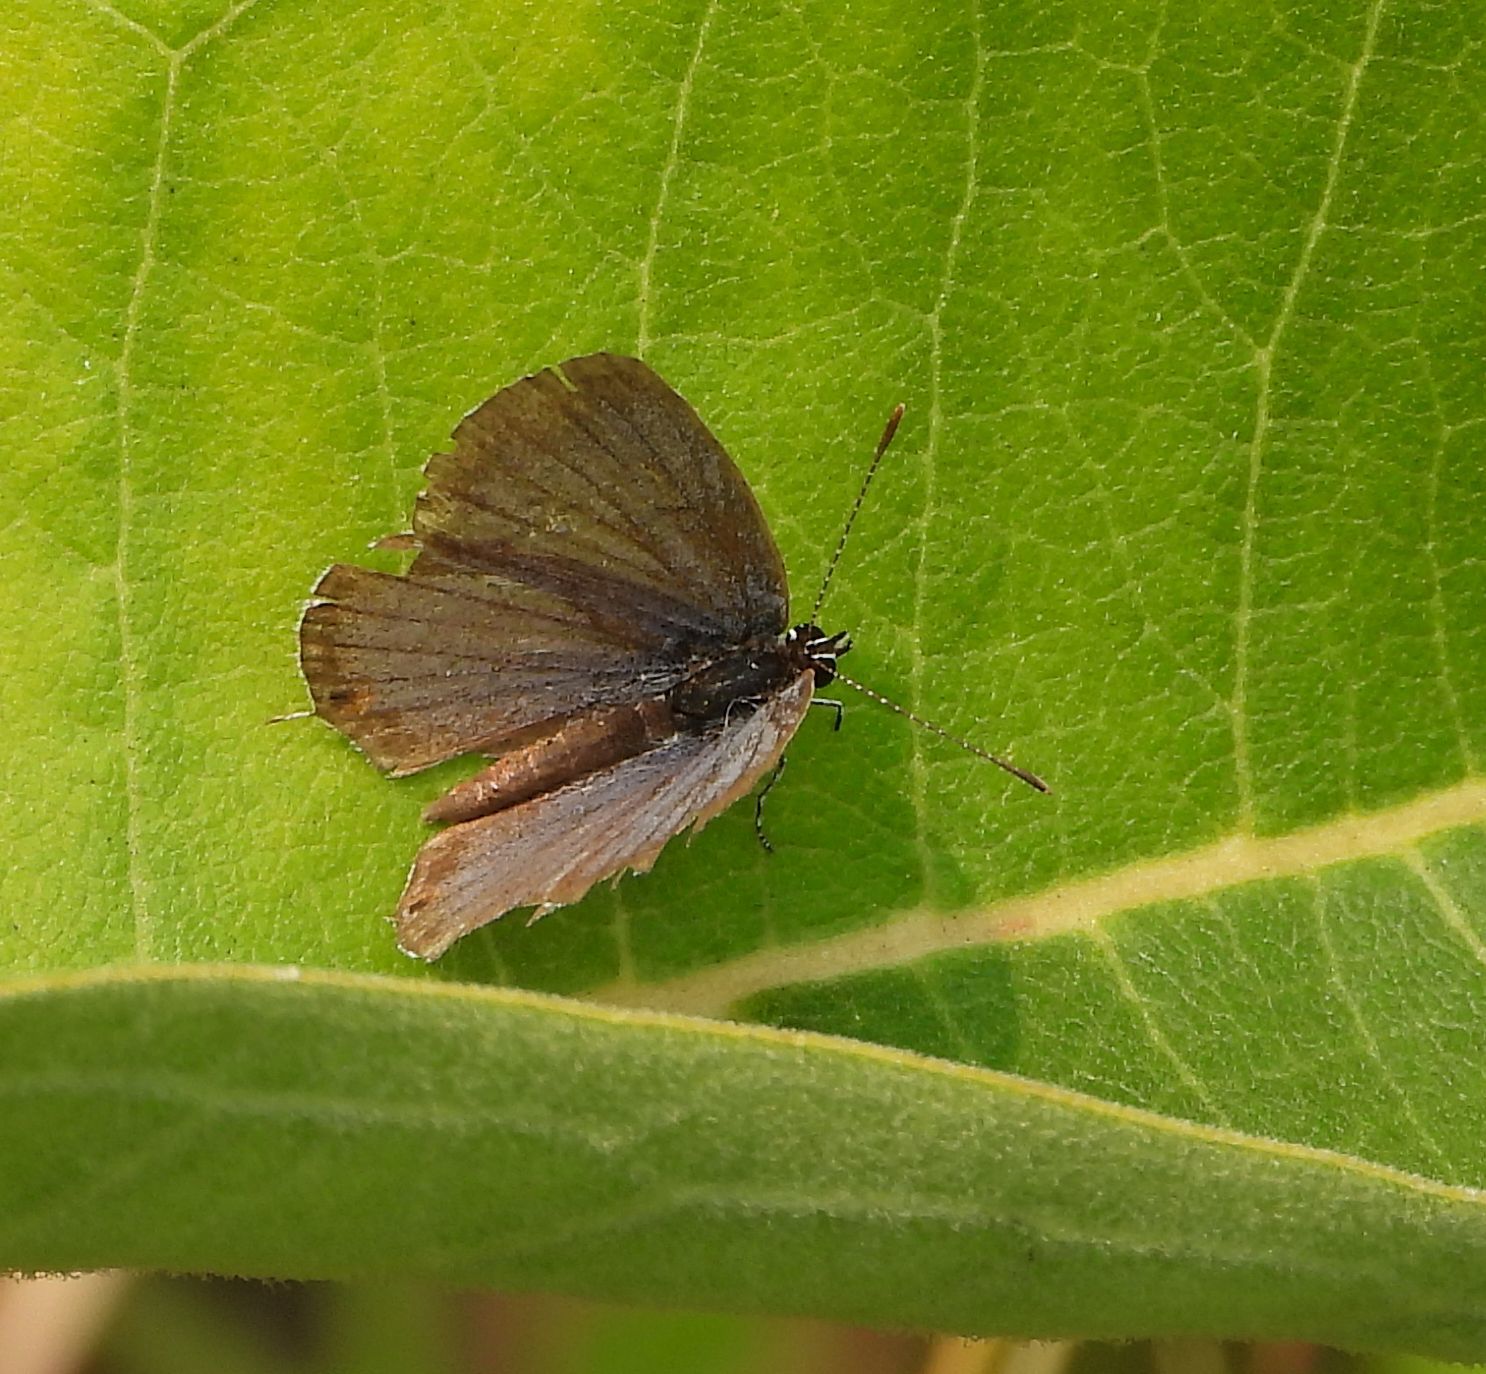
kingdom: Animalia
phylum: Arthropoda
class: Insecta
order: Lepidoptera
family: Lycaenidae
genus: Elkalyce
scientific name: Elkalyce comyntas
